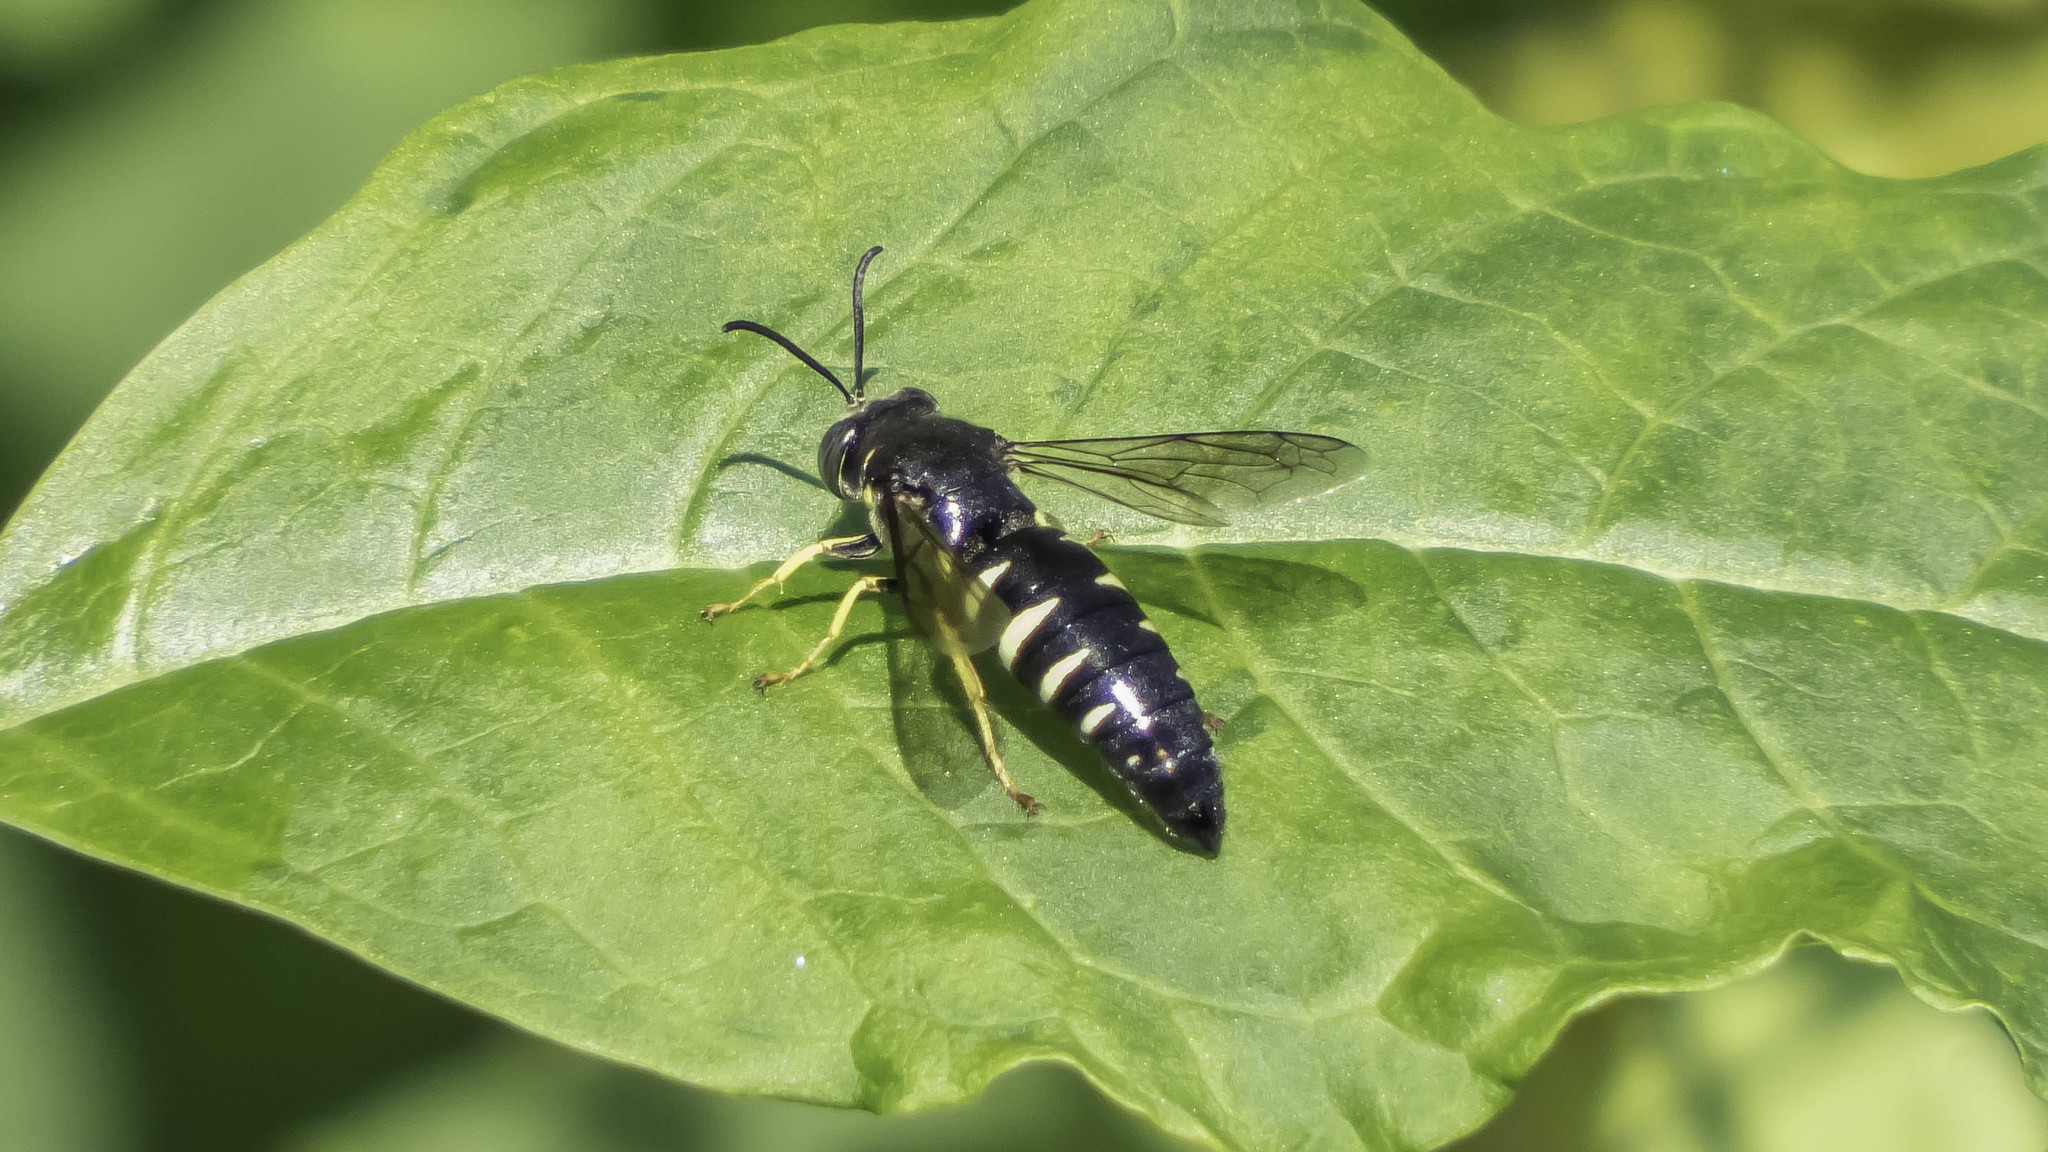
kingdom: Animalia
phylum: Arthropoda
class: Insecta
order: Hymenoptera
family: Crabronidae
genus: Bicyrtes
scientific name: Bicyrtes quadrifasciatus
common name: Four-banded stink bug hunter wasp
